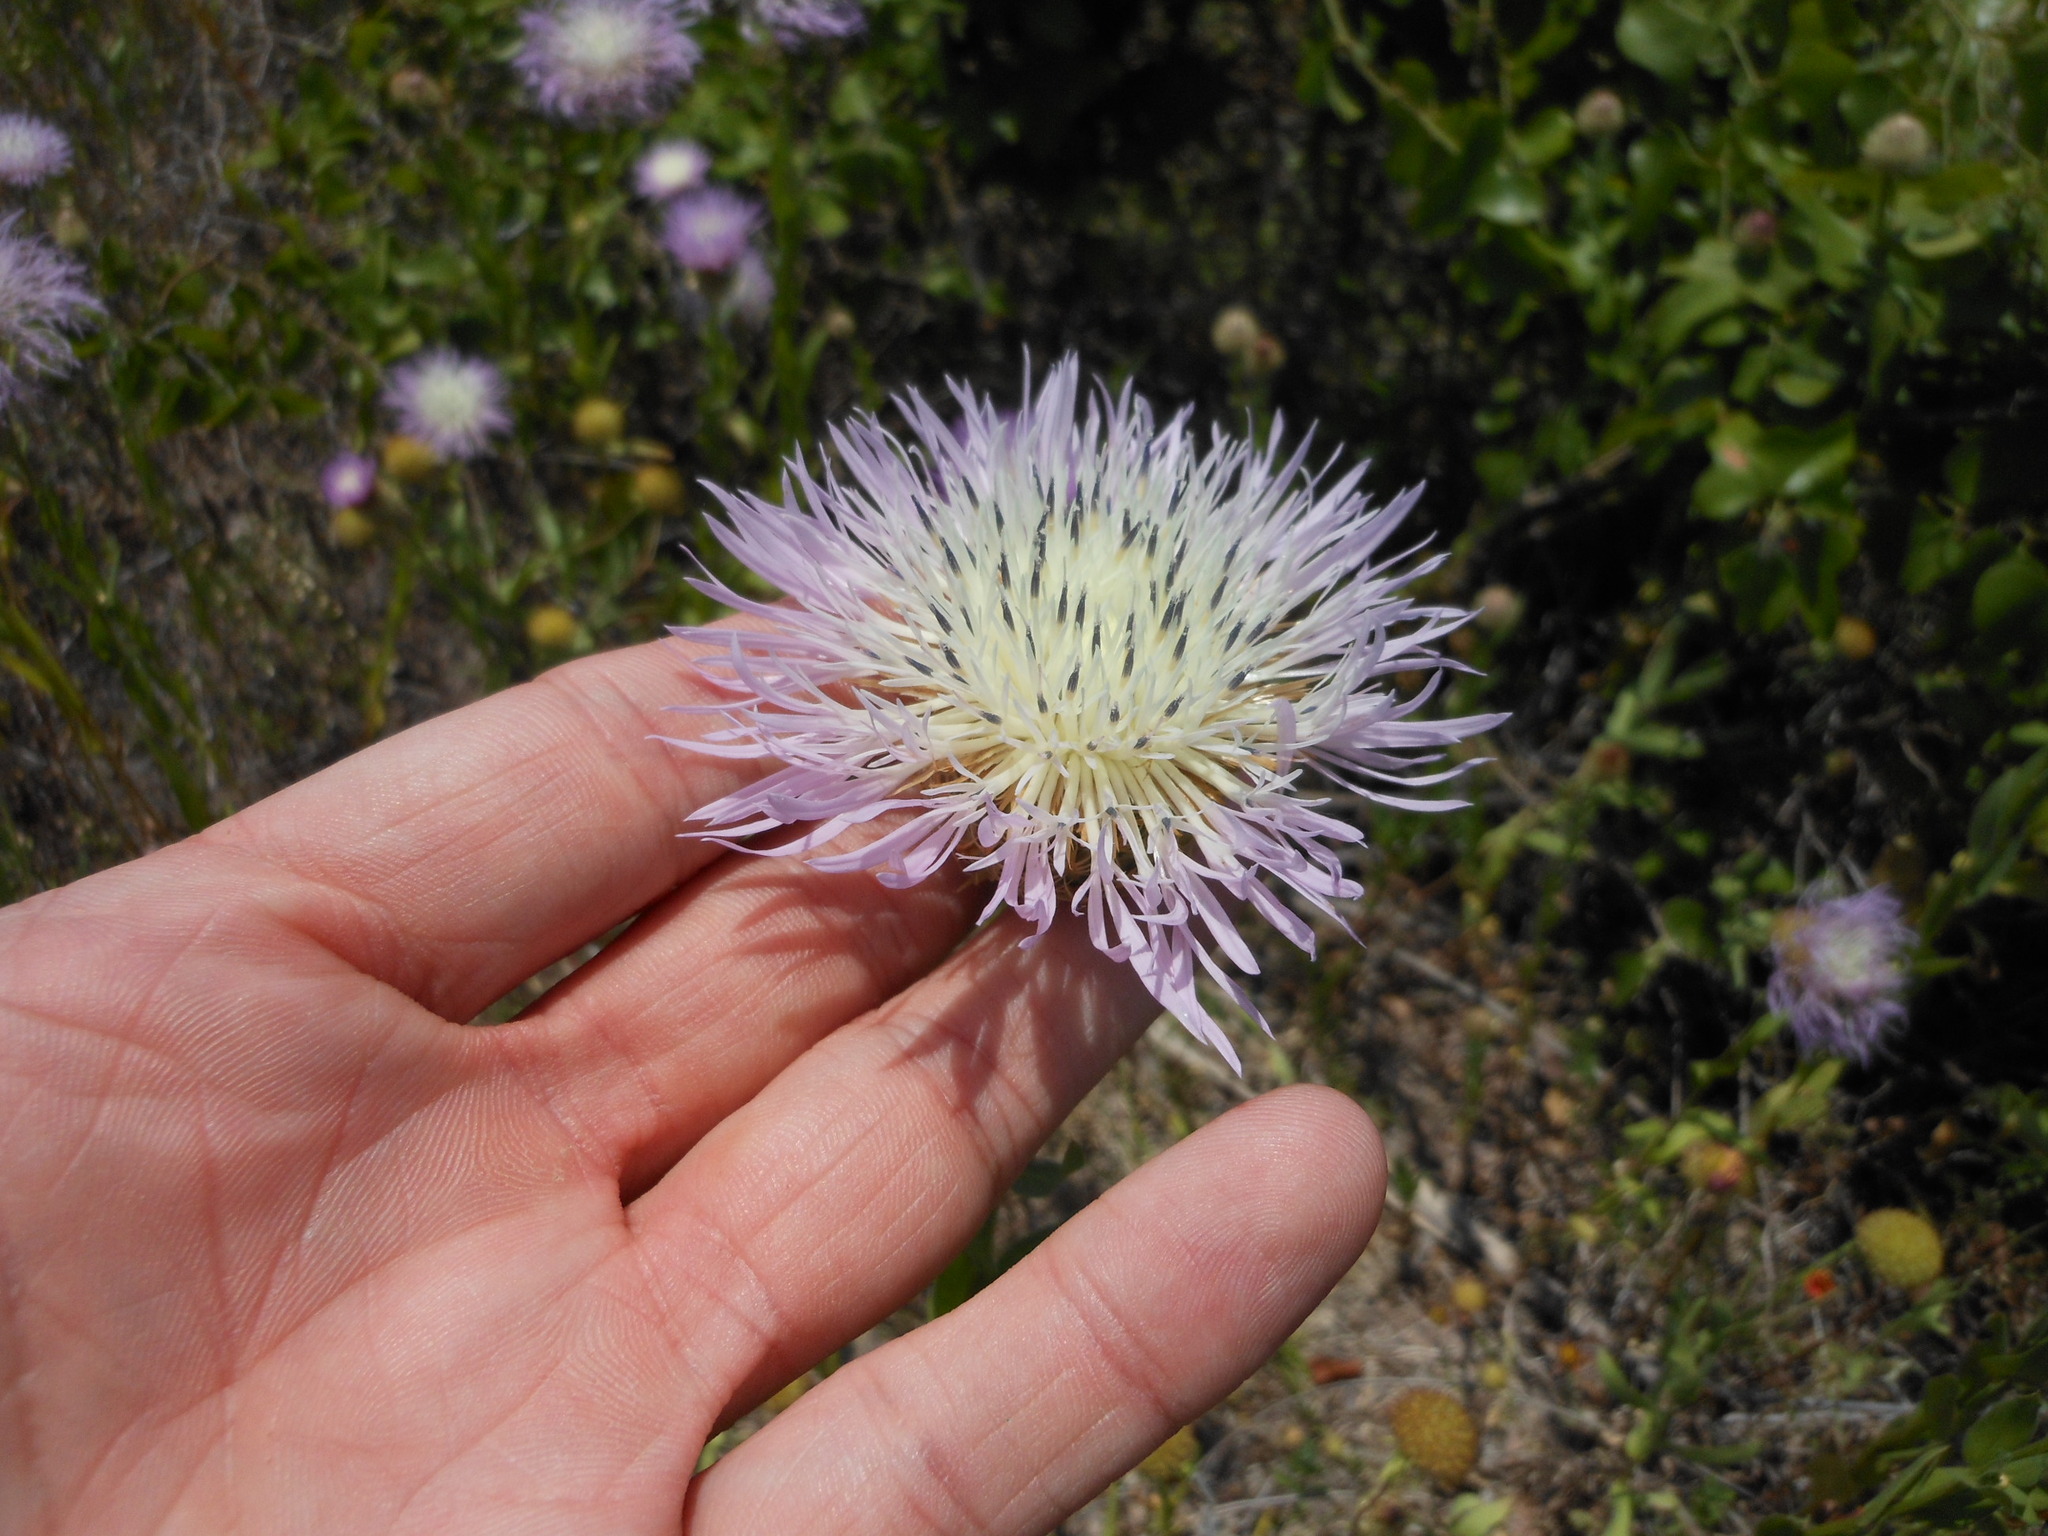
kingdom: Plantae
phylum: Tracheophyta
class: Magnoliopsida
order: Asterales
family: Asteraceae
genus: Plectocephalus
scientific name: Plectocephalus americanus
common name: American basket-flower
